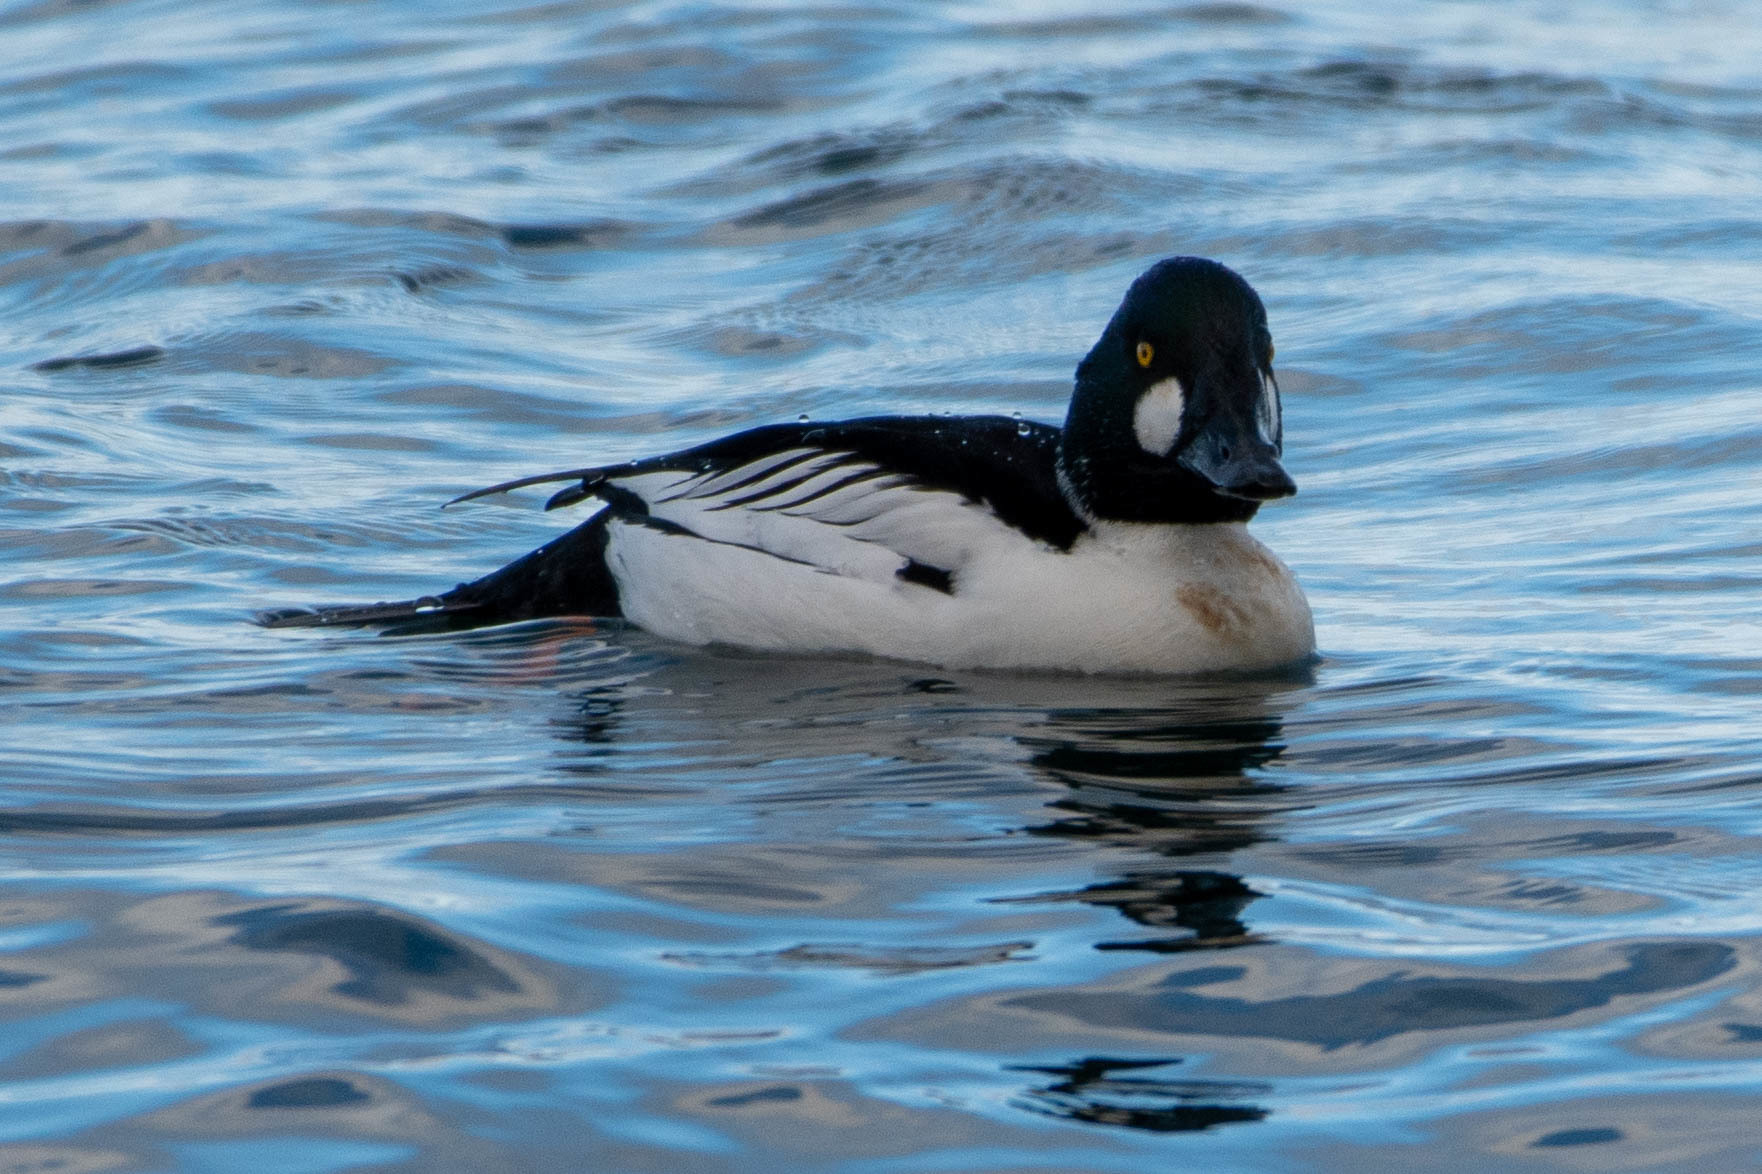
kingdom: Animalia
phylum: Chordata
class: Aves
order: Anseriformes
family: Anatidae
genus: Bucephala
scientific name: Bucephala clangula
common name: Common goldeneye
